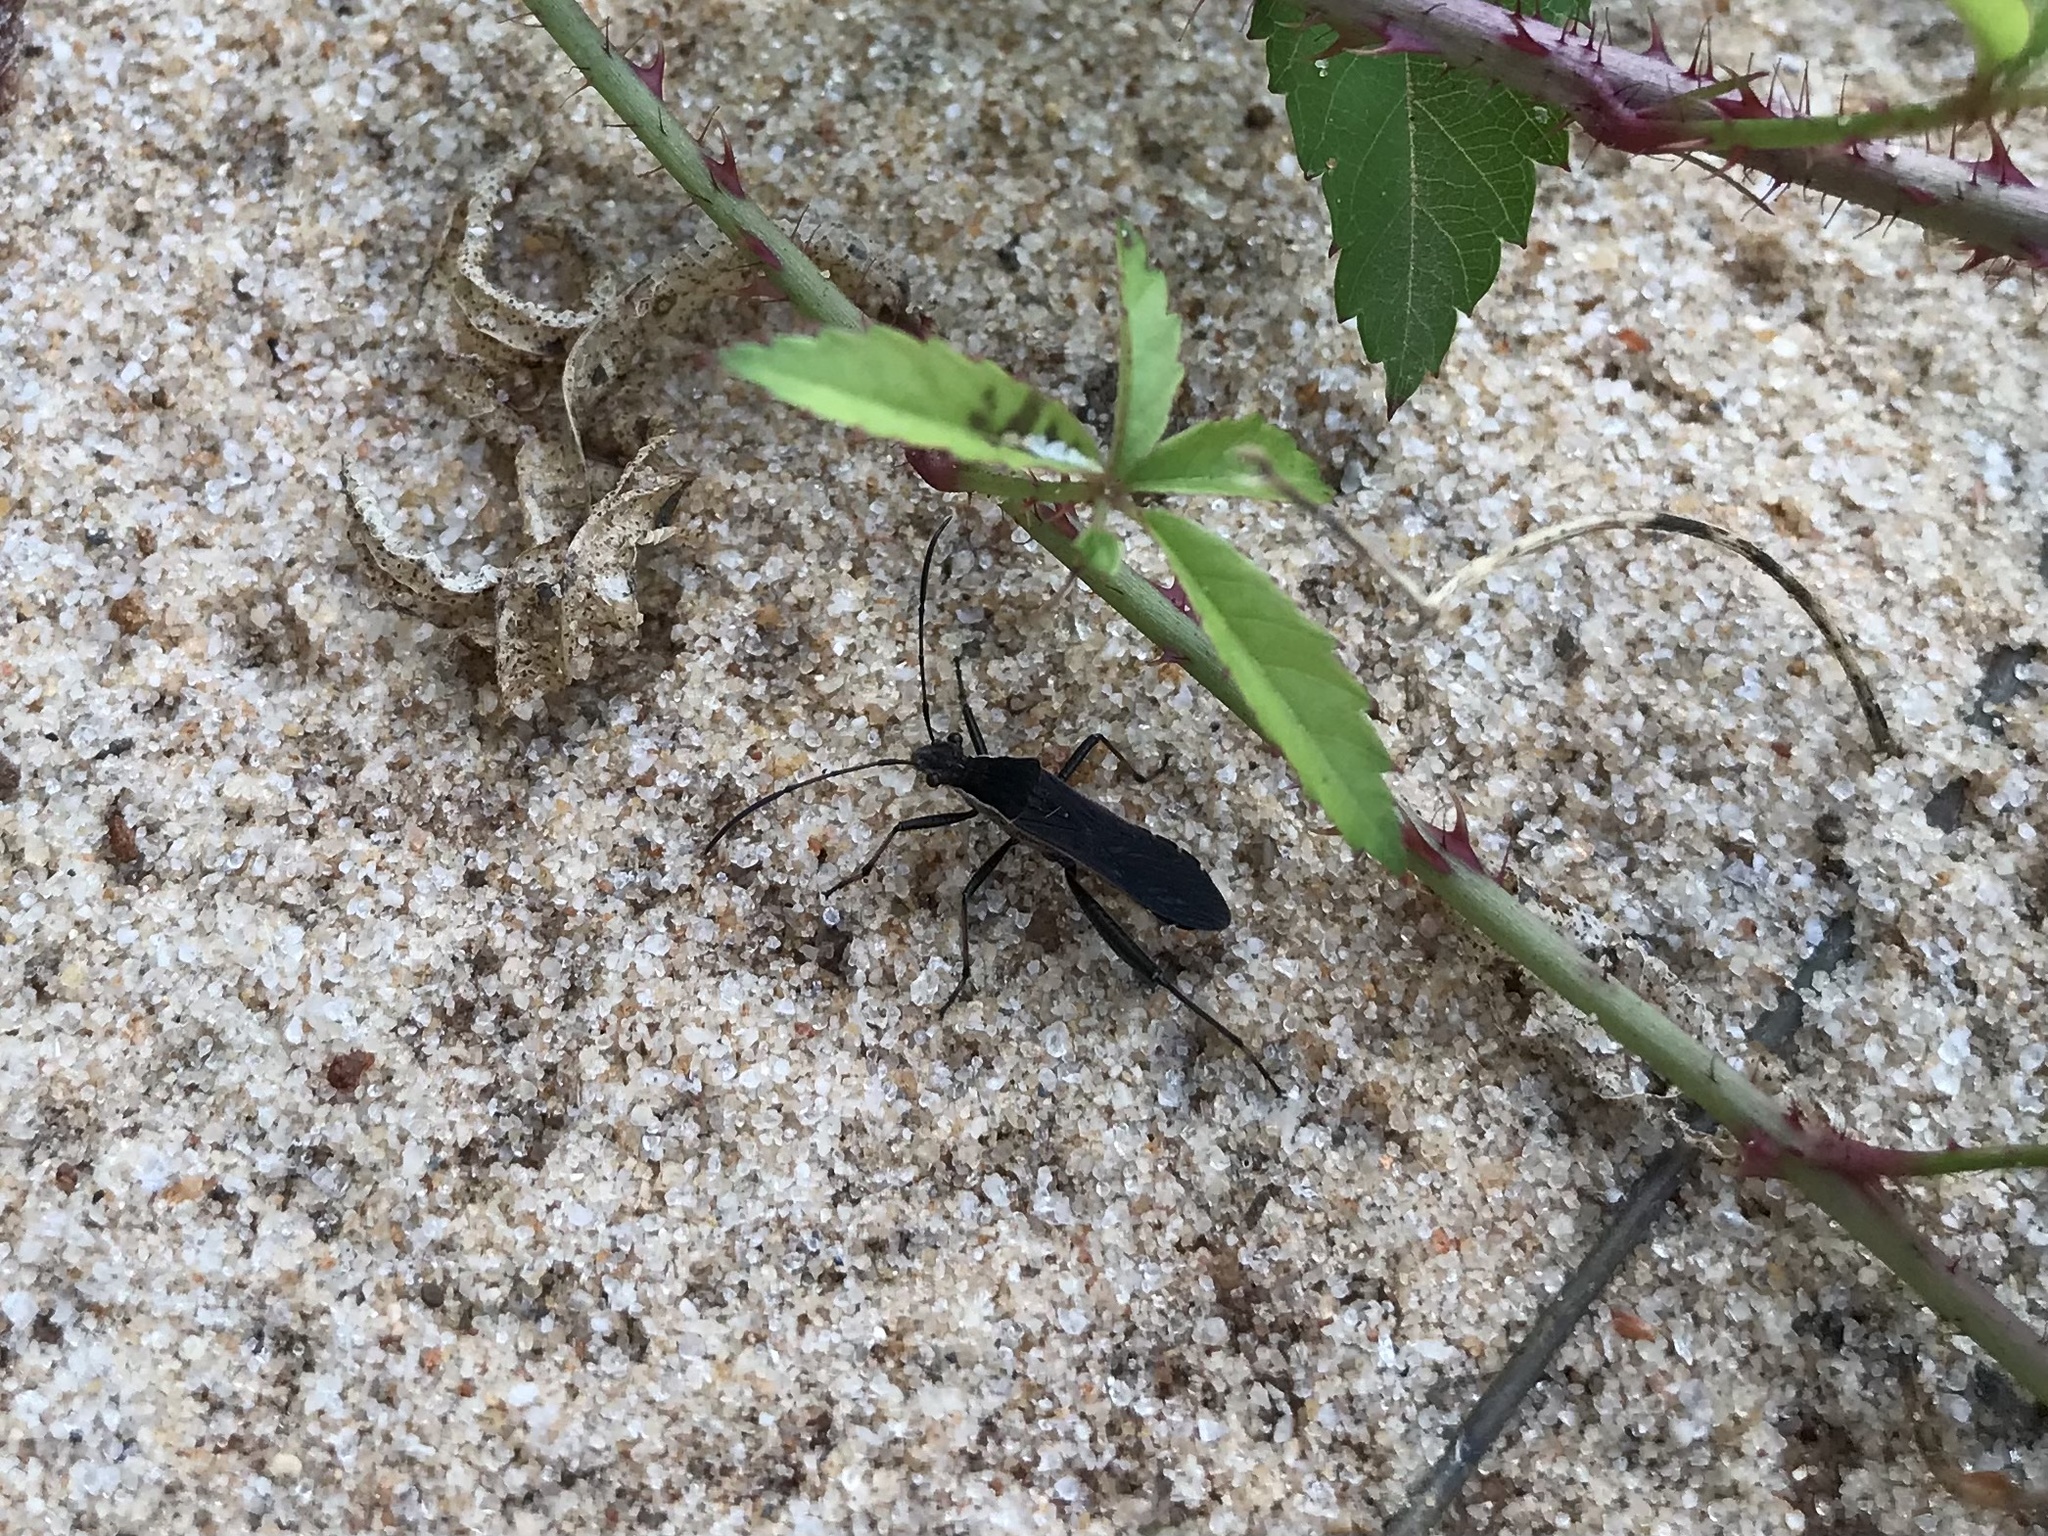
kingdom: Animalia
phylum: Arthropoda
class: Insecta
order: Hemiptera
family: Alydidae
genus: Alydus
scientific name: Alydus pilosulus
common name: Broad-headed bug
